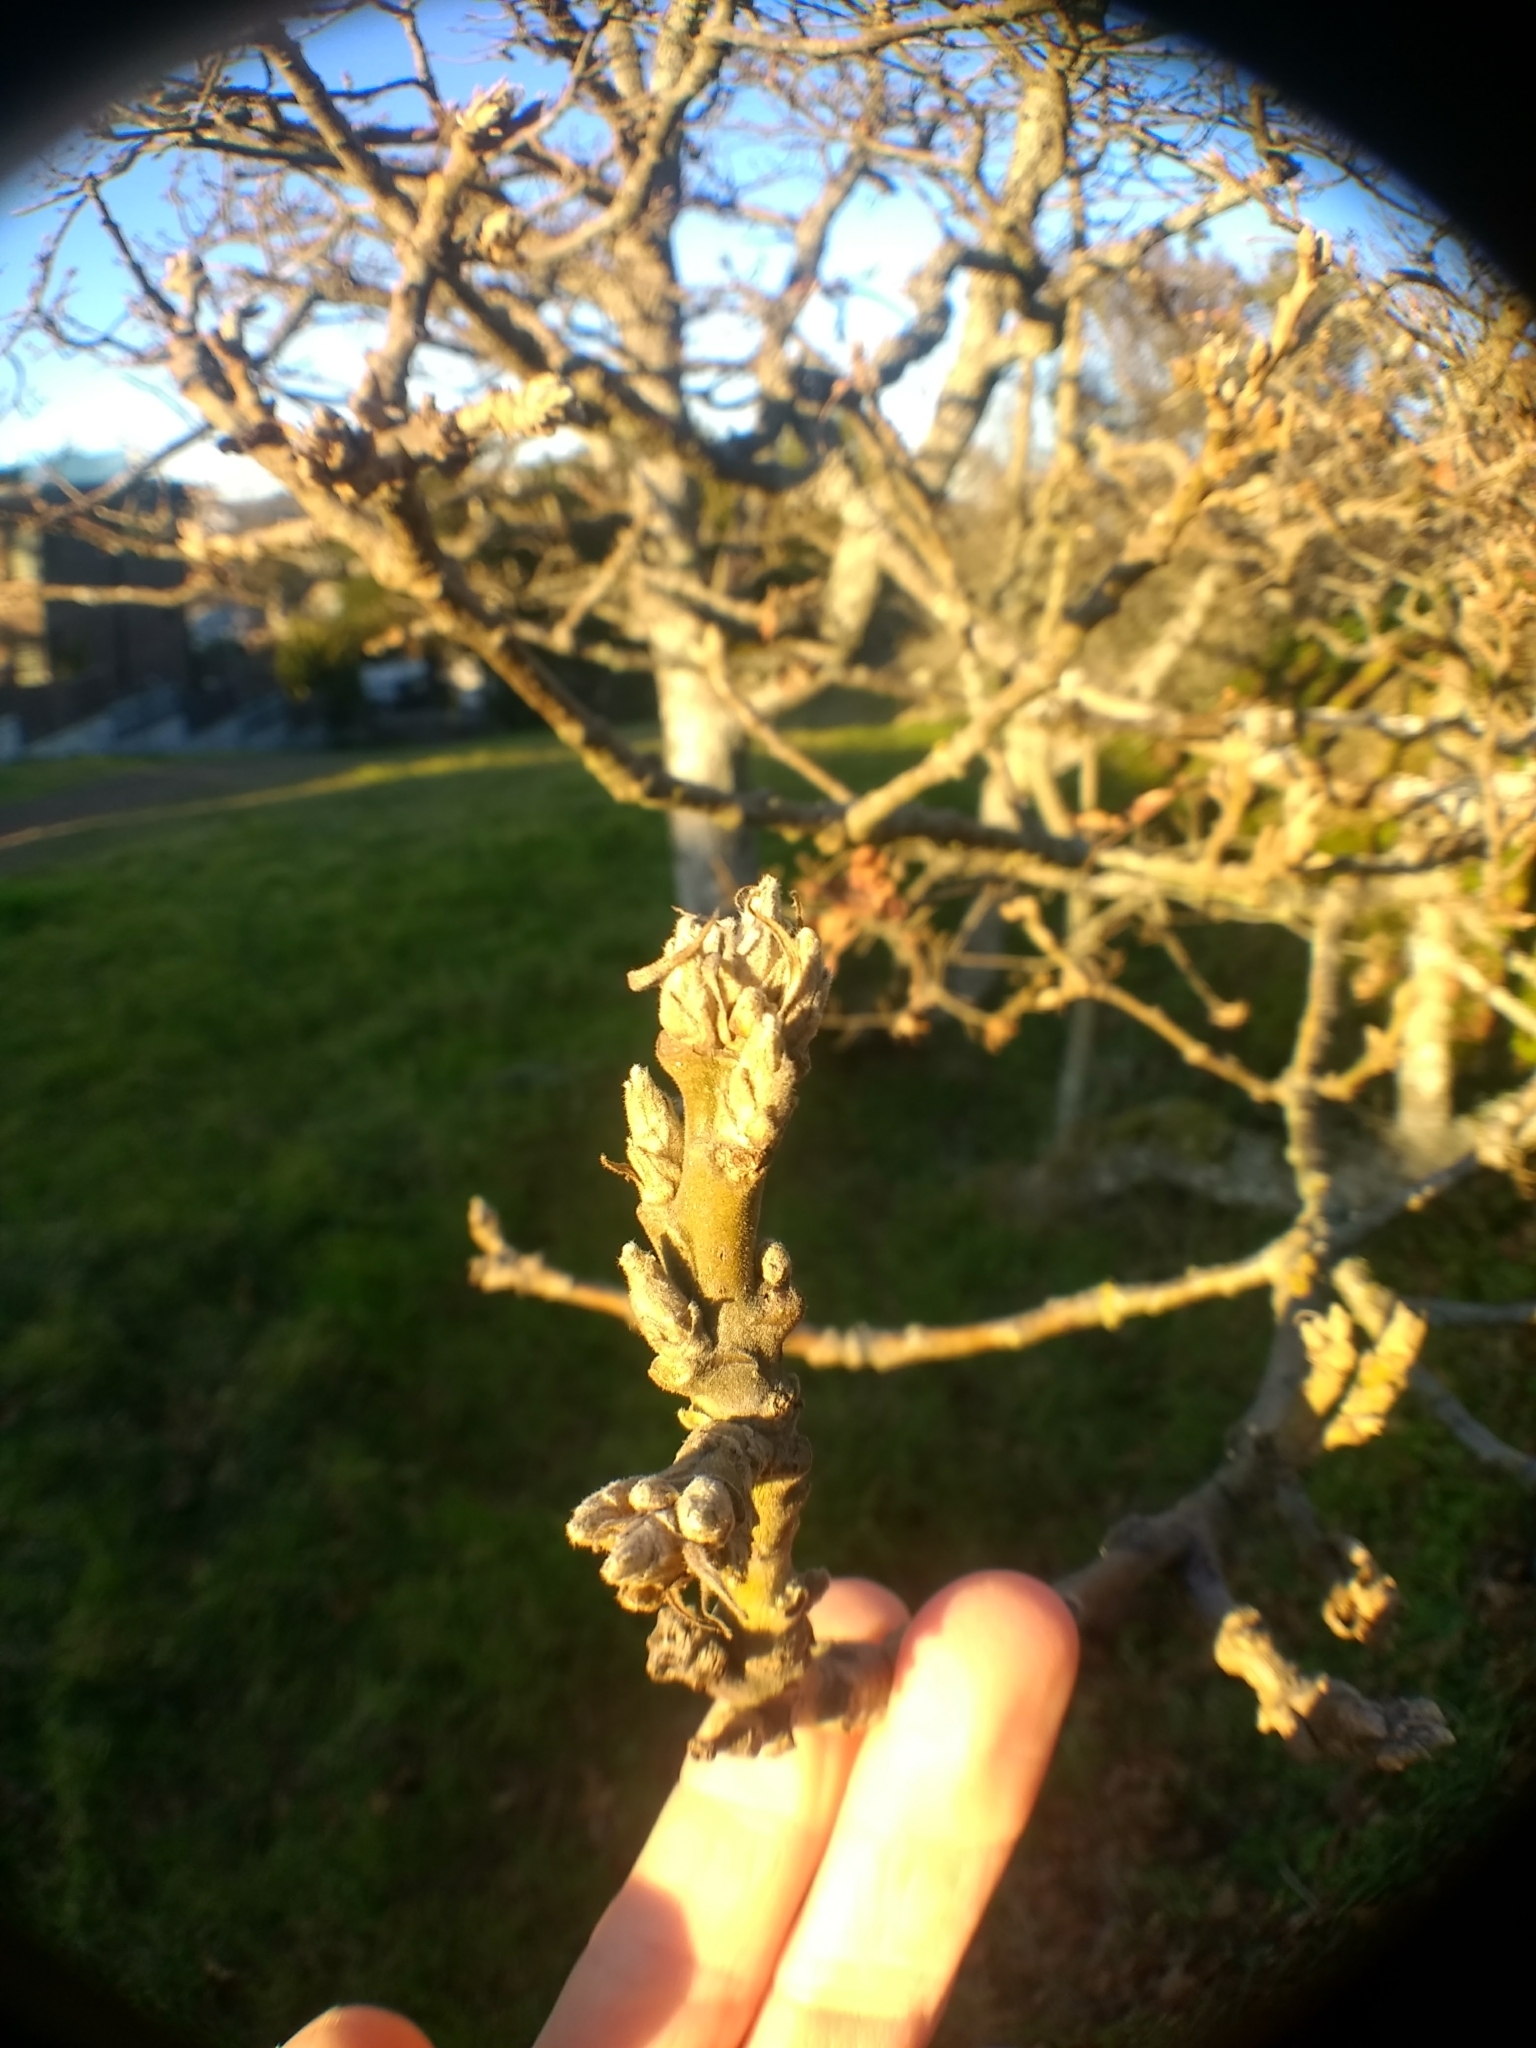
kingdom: Plantae
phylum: Tracheophyta
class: Magnoliopsida
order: Fagales
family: Fagaceae
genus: Quercus
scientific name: Quercus garryana
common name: Garry oak
